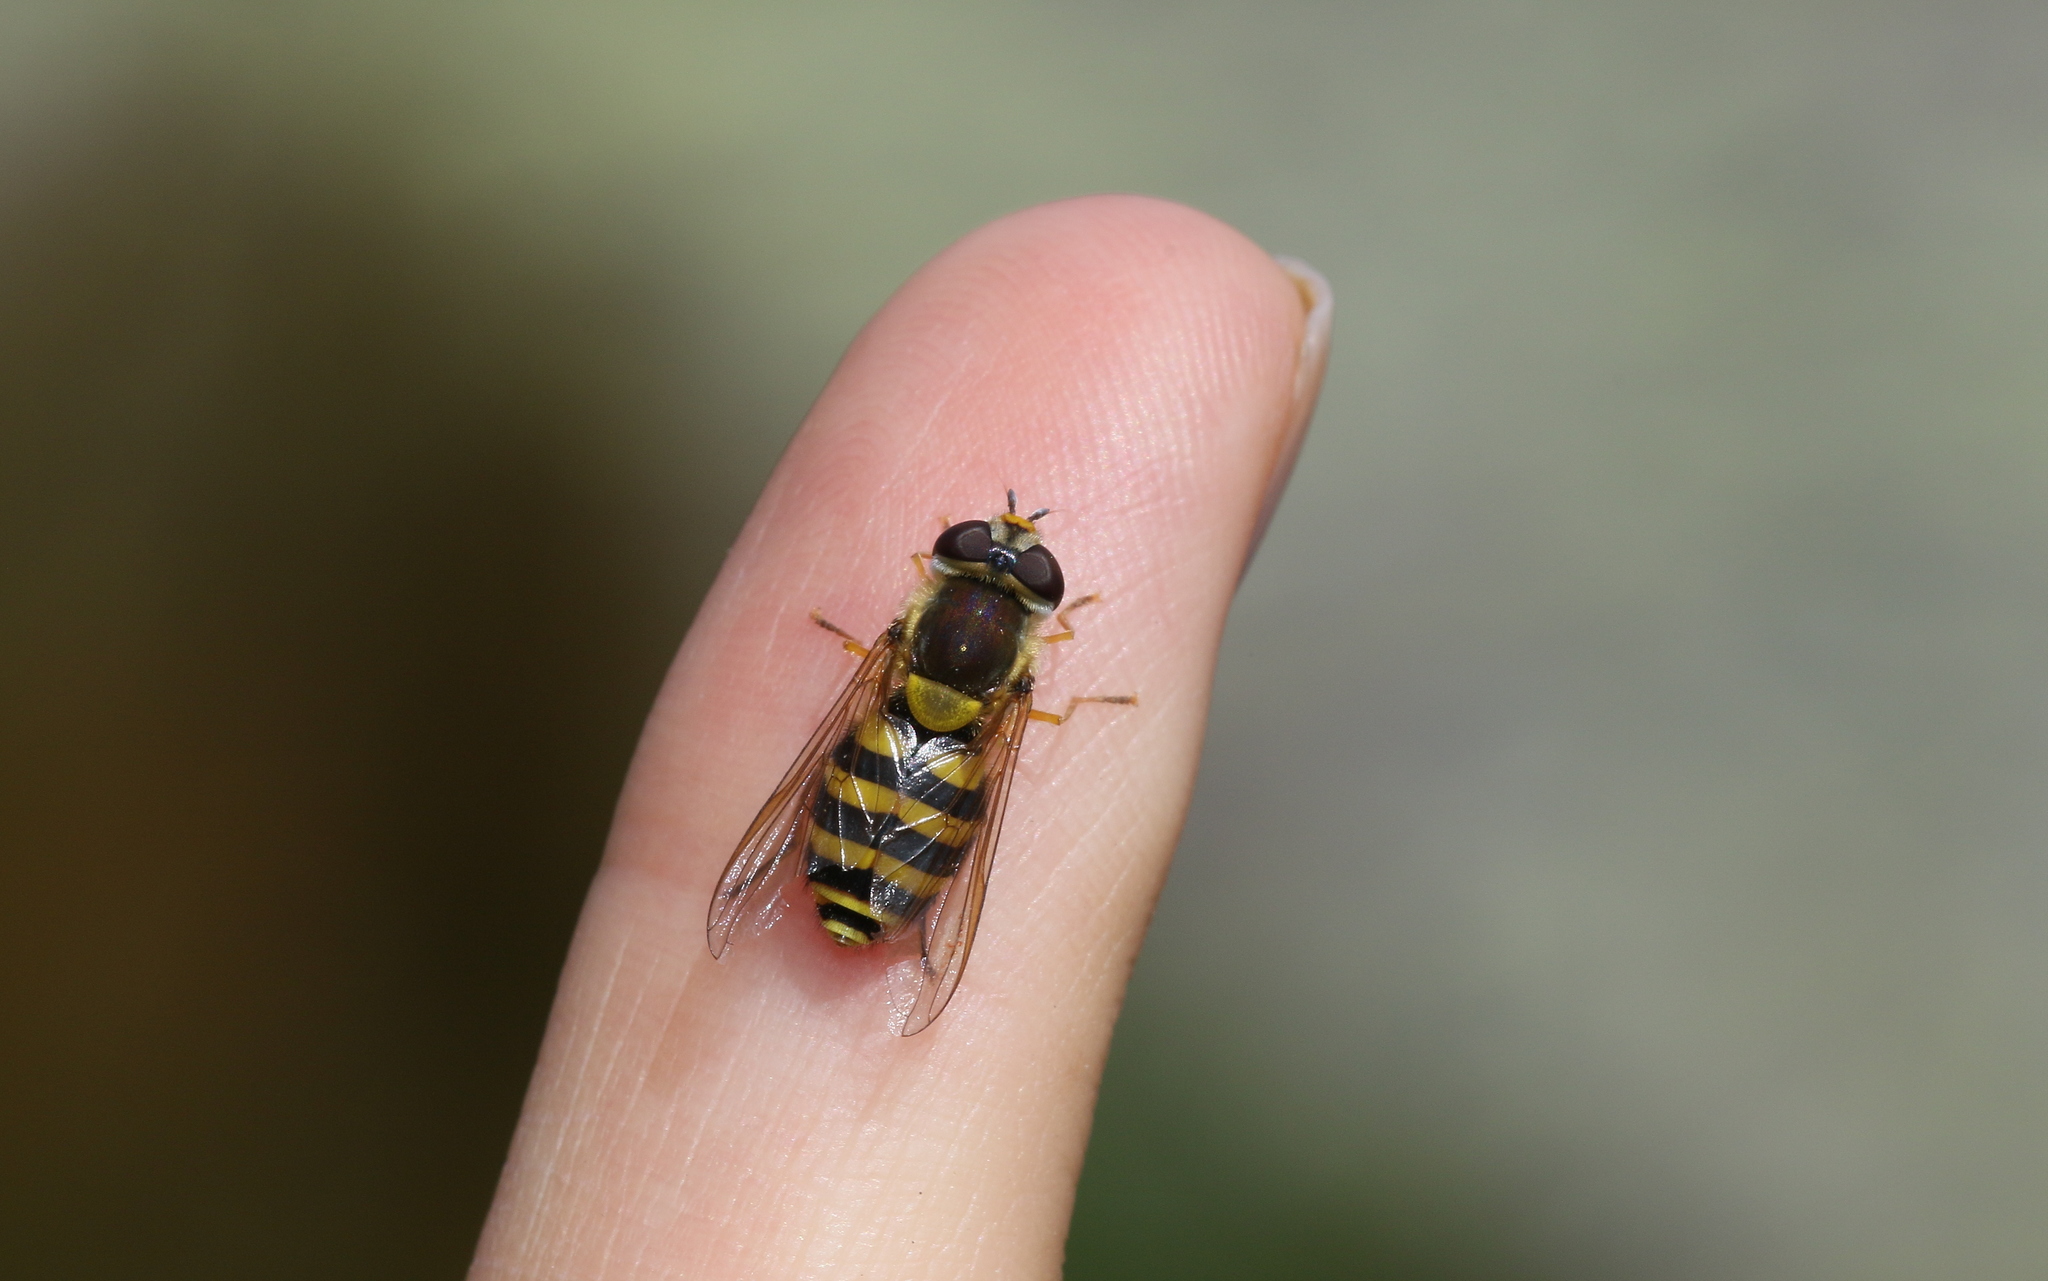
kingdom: Animalia
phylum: Arthropoda
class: Insecta
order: Diptera
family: Syrphidae
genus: Syrphus
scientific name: Syrphus
